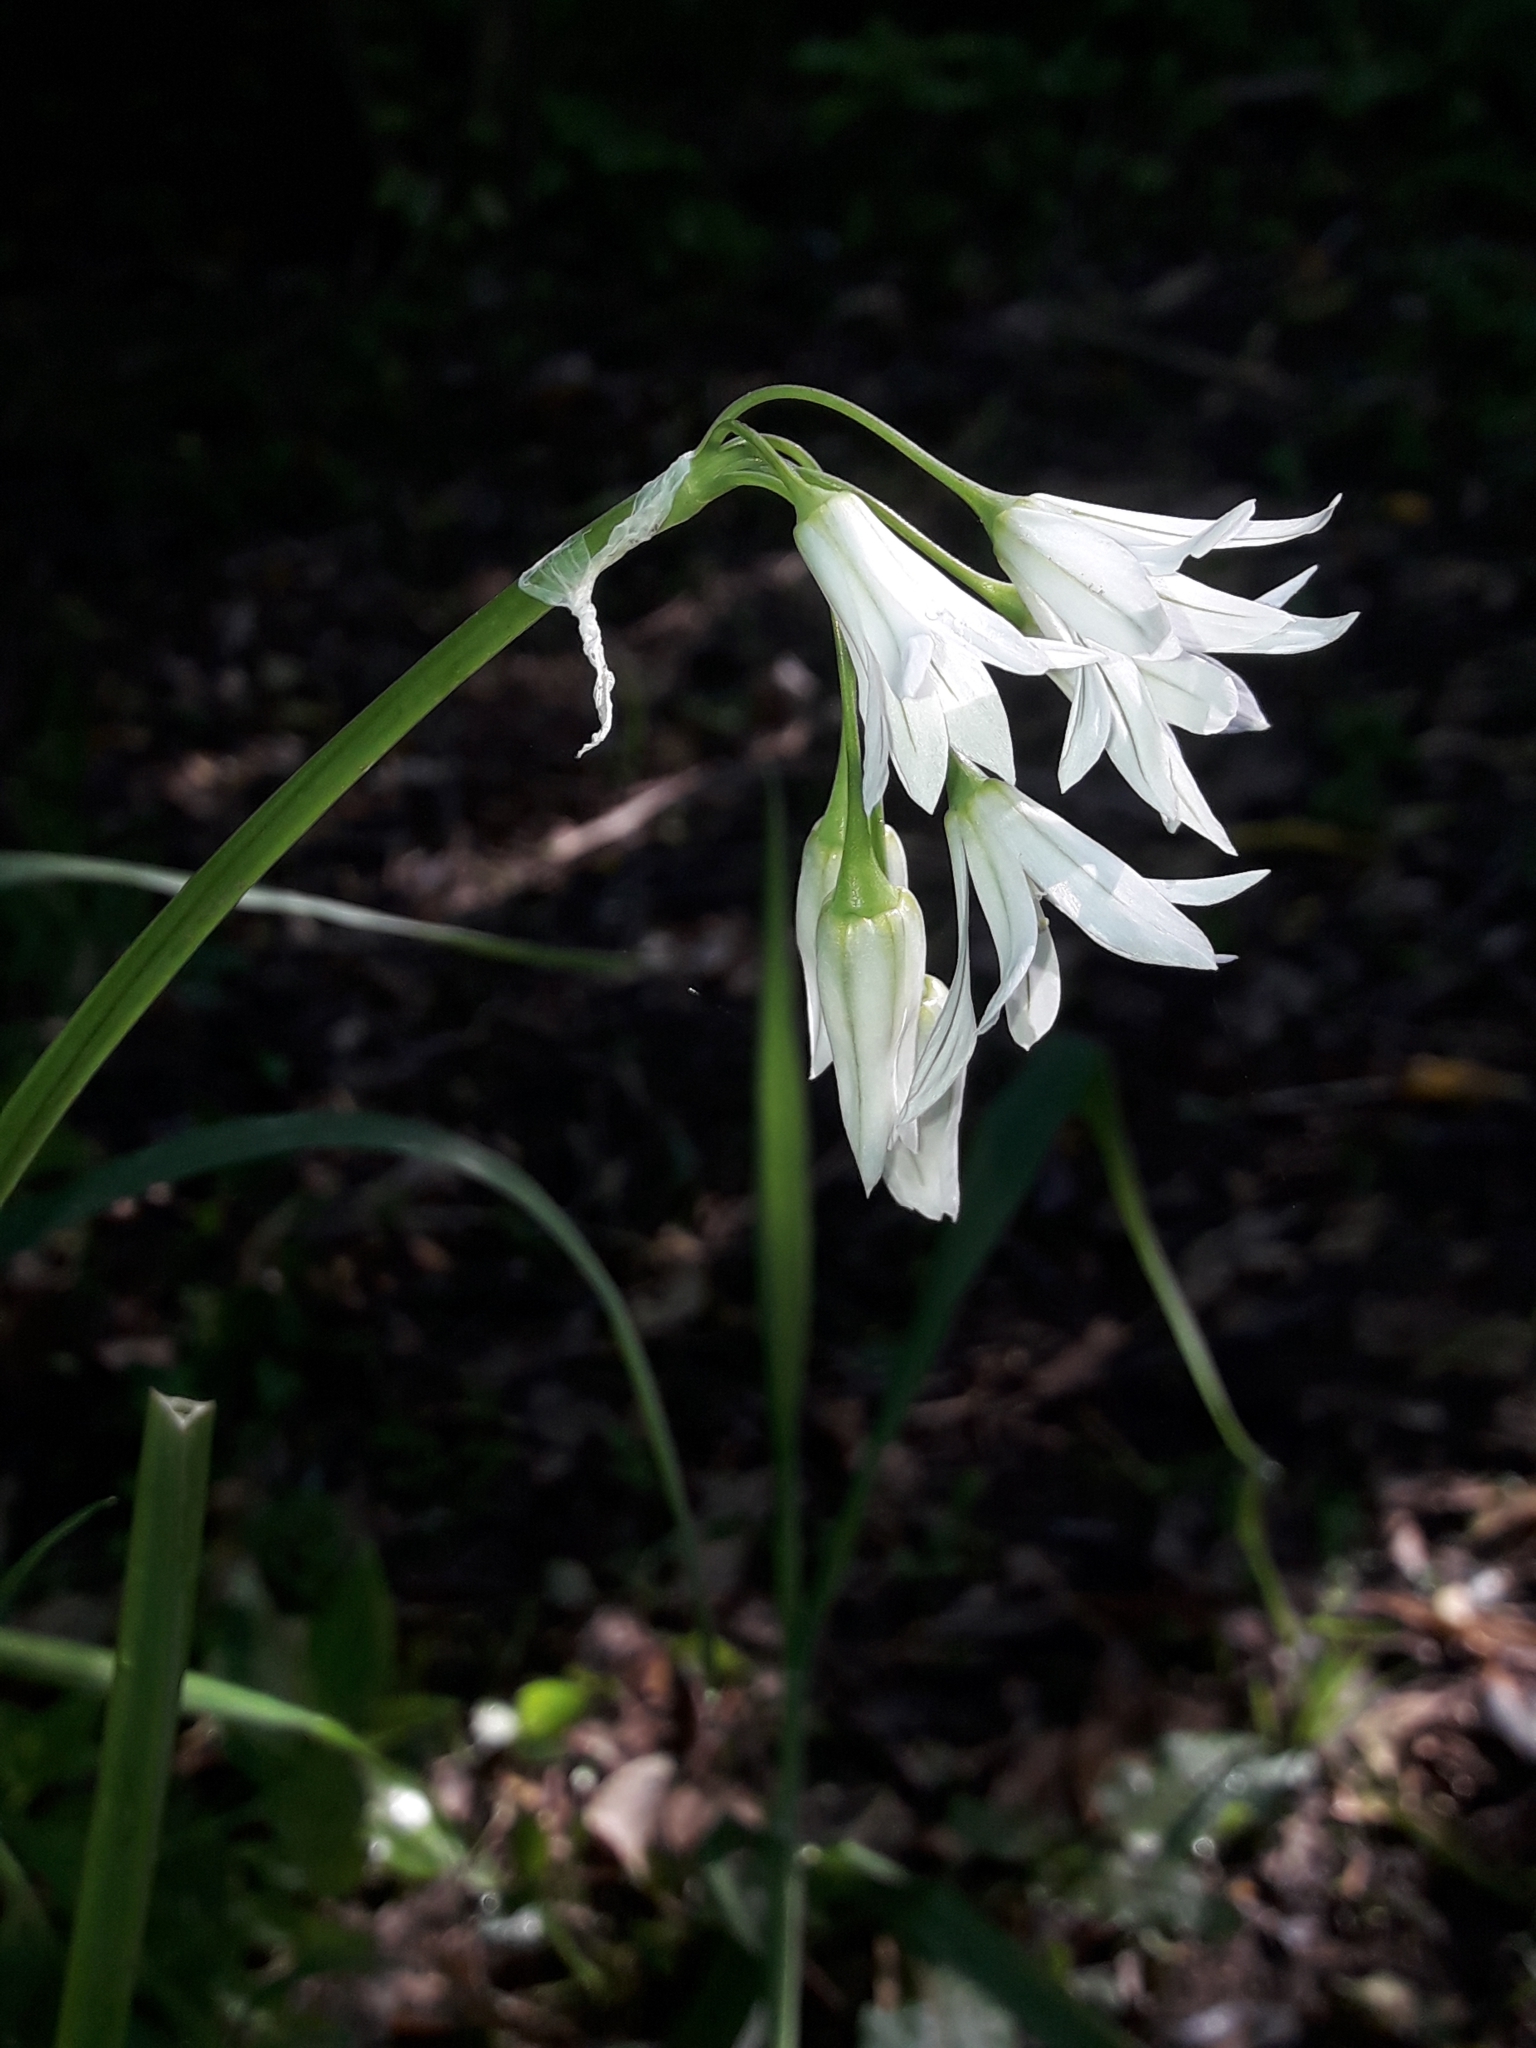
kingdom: Plantae
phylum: Tracheophyta
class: Liliopsida
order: Asparagales
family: Amaryllidaceae
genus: Allium
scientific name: Allium triquetrum
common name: Three-cornered garlic
